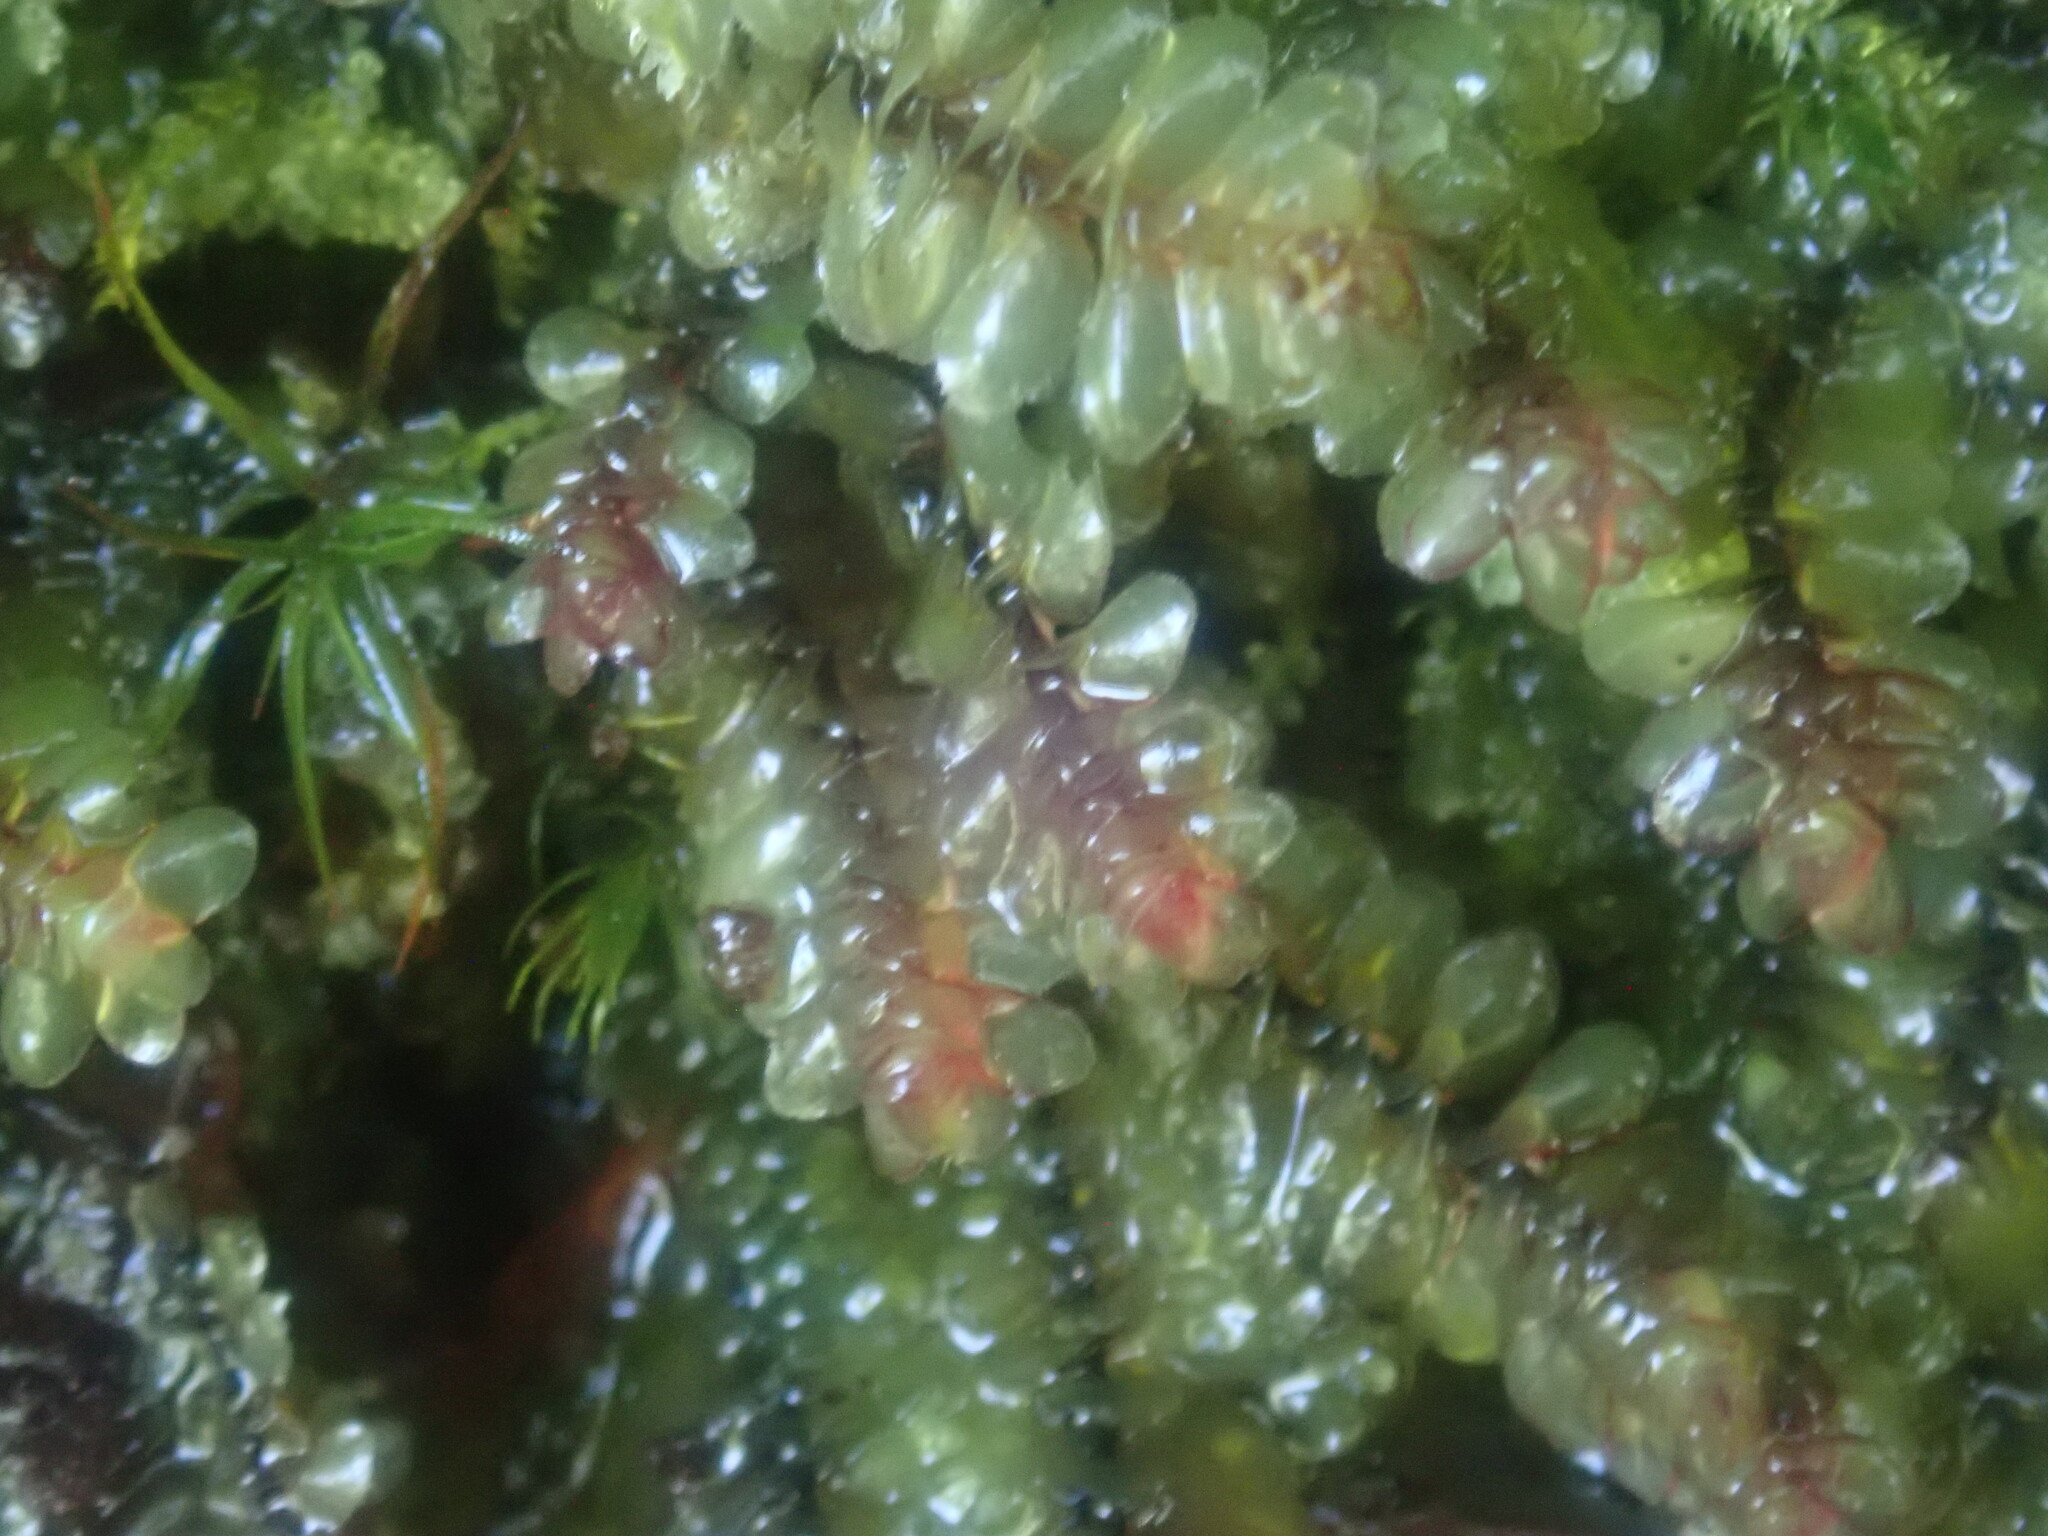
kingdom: Plantae
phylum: Marchantiophyta
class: Jungermanniopsida
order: Jungermanniales
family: Scapaniaceae
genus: Scapania
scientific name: Scapania nemorea
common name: Grove earwort
